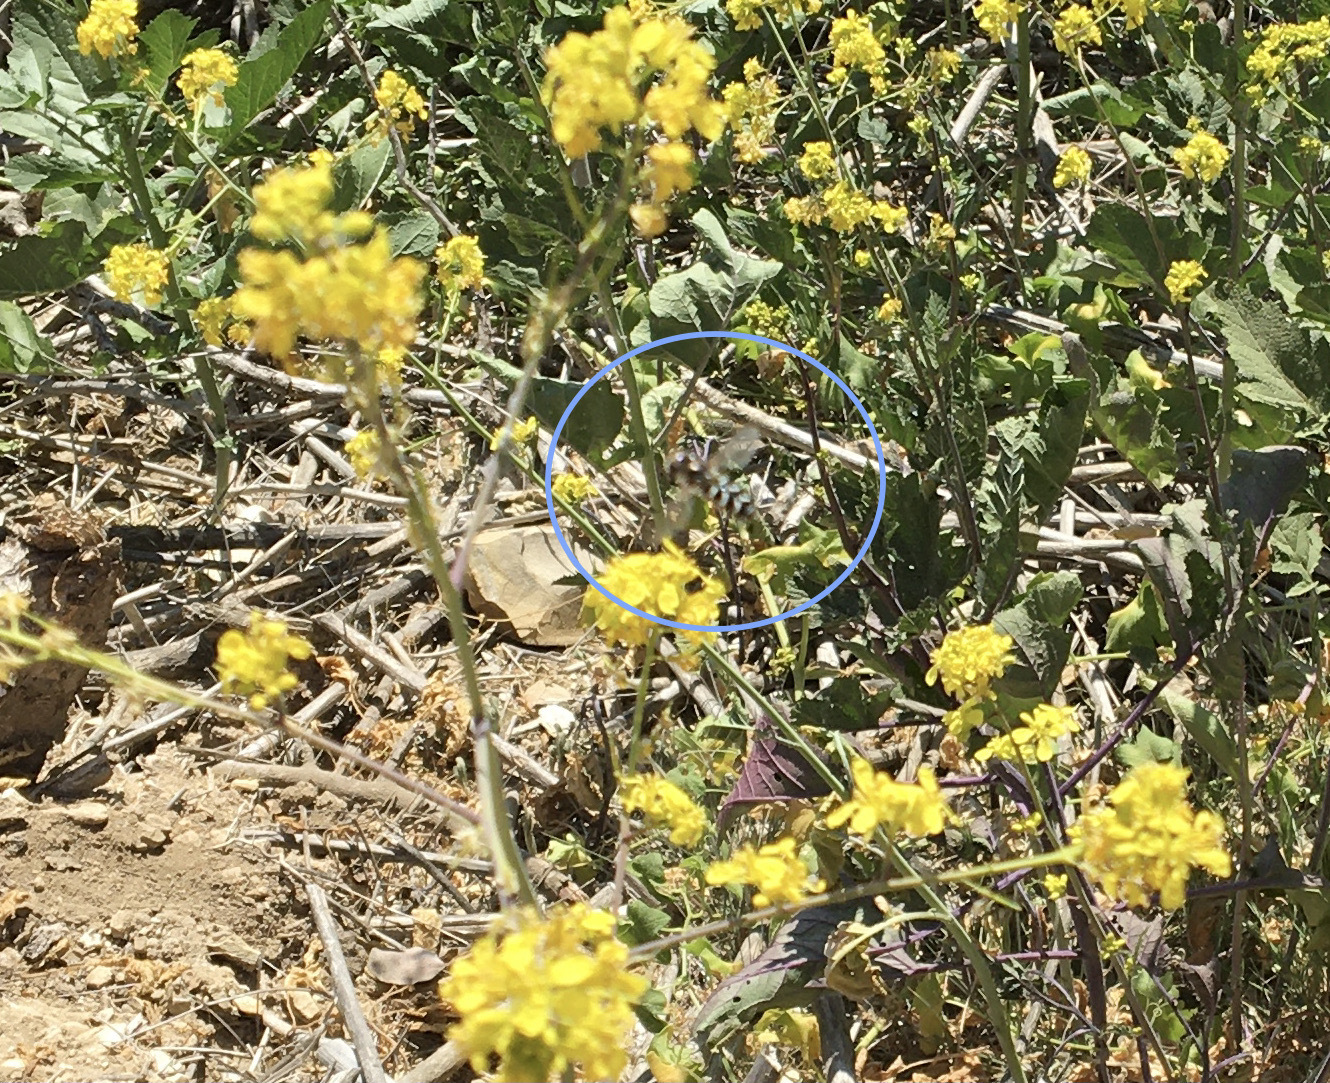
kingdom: Animalia
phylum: Arthropoda
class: Insecta
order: Diptera
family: Syrphidae
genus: Scaeva
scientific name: Scaeva affinis
